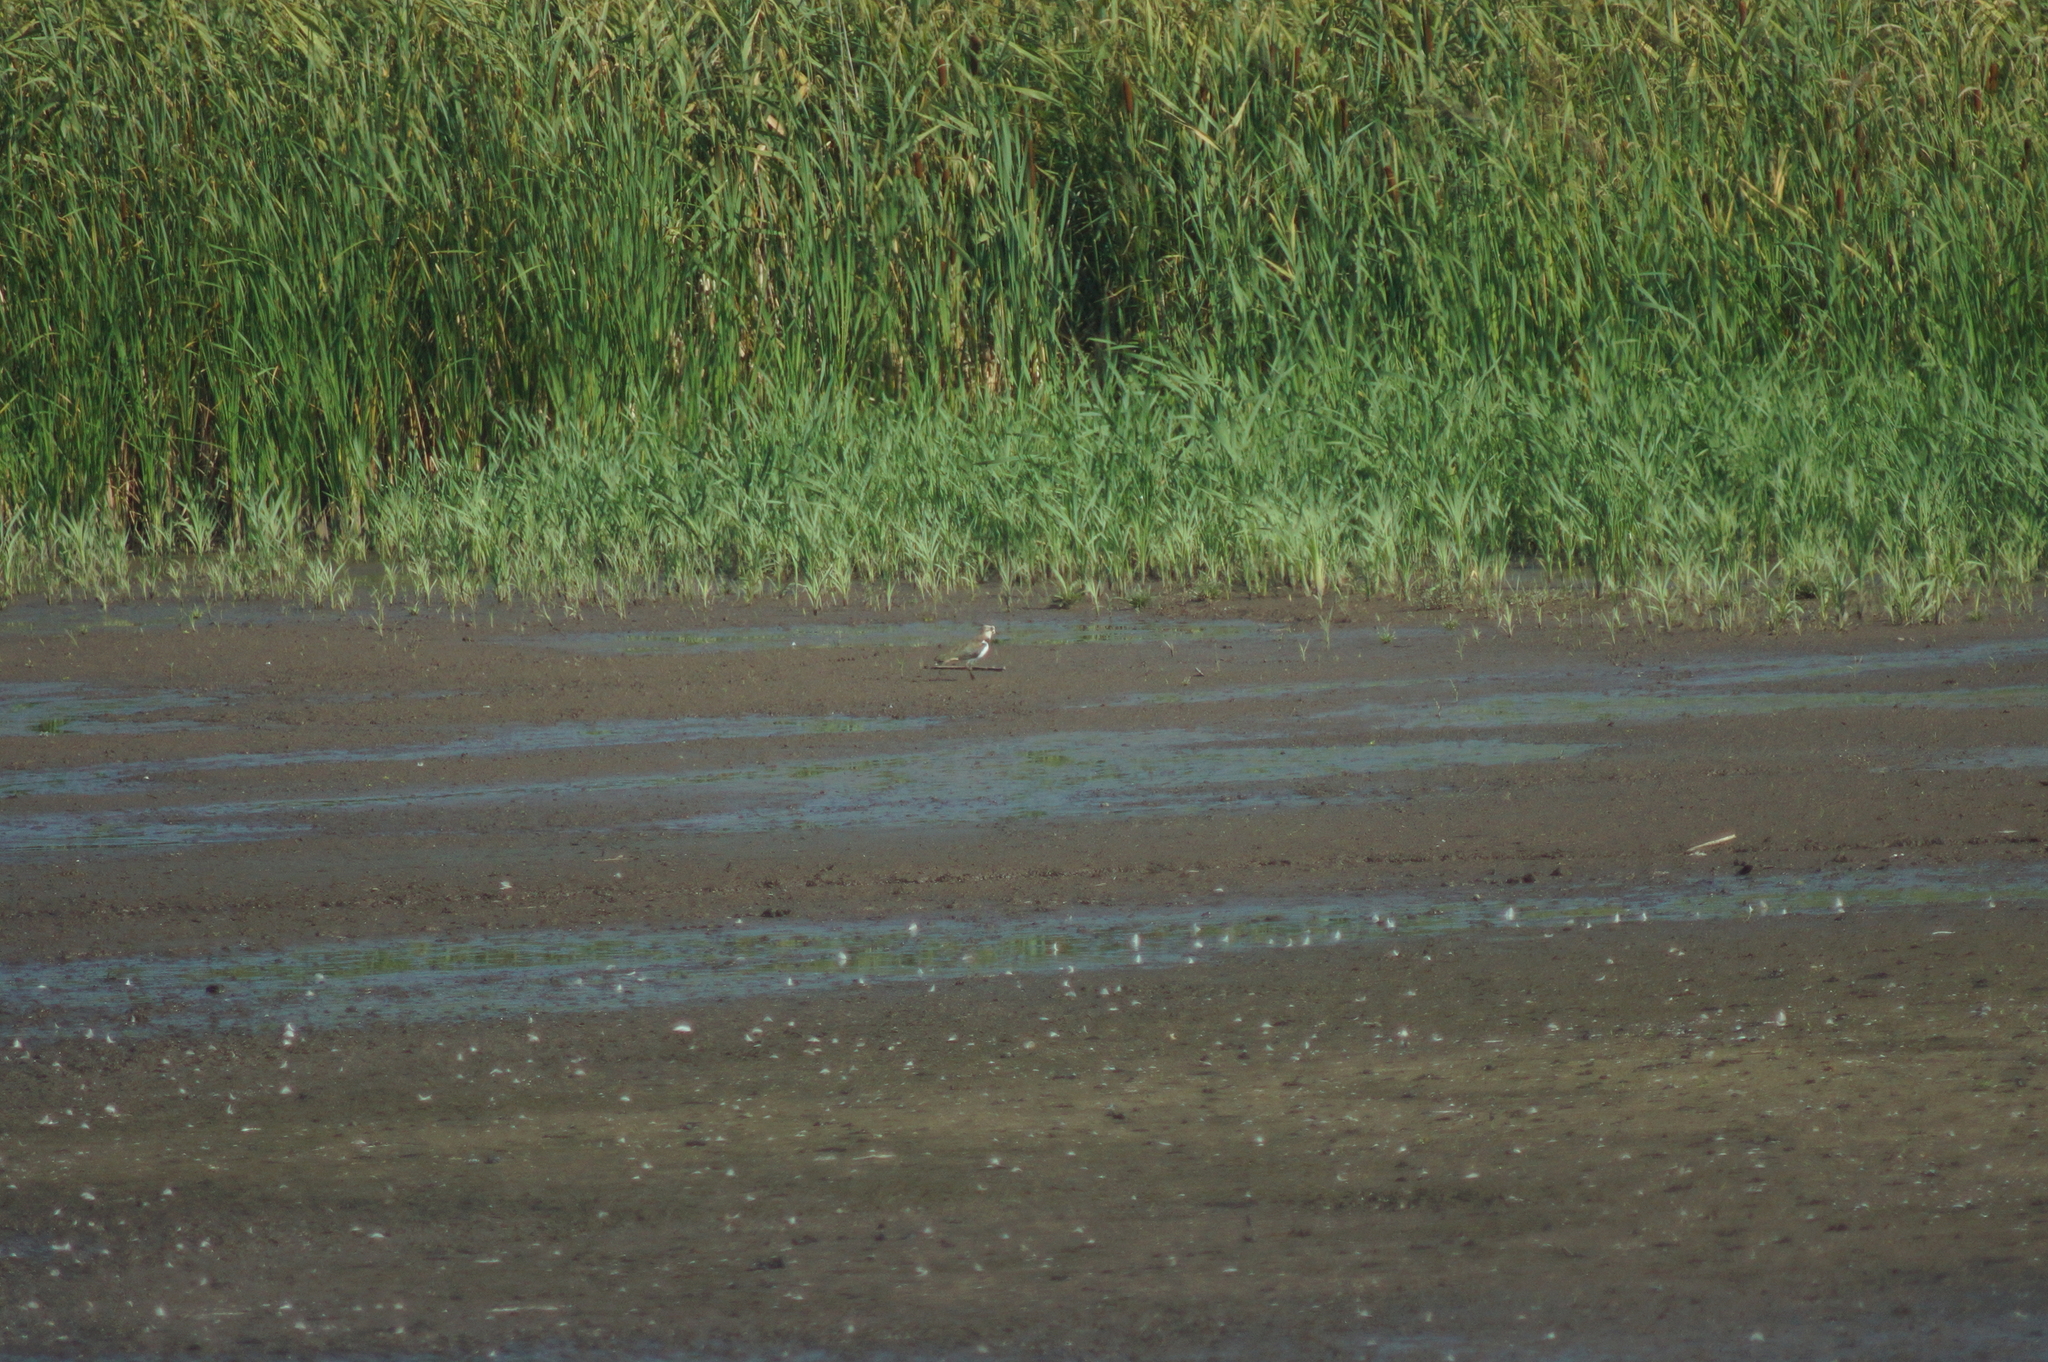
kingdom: Animalia
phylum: Chordata
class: Aves
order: Charadriiformes
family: Charadriidae
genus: Vanellus
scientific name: Vanellus vanellus
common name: Northern lapwing
